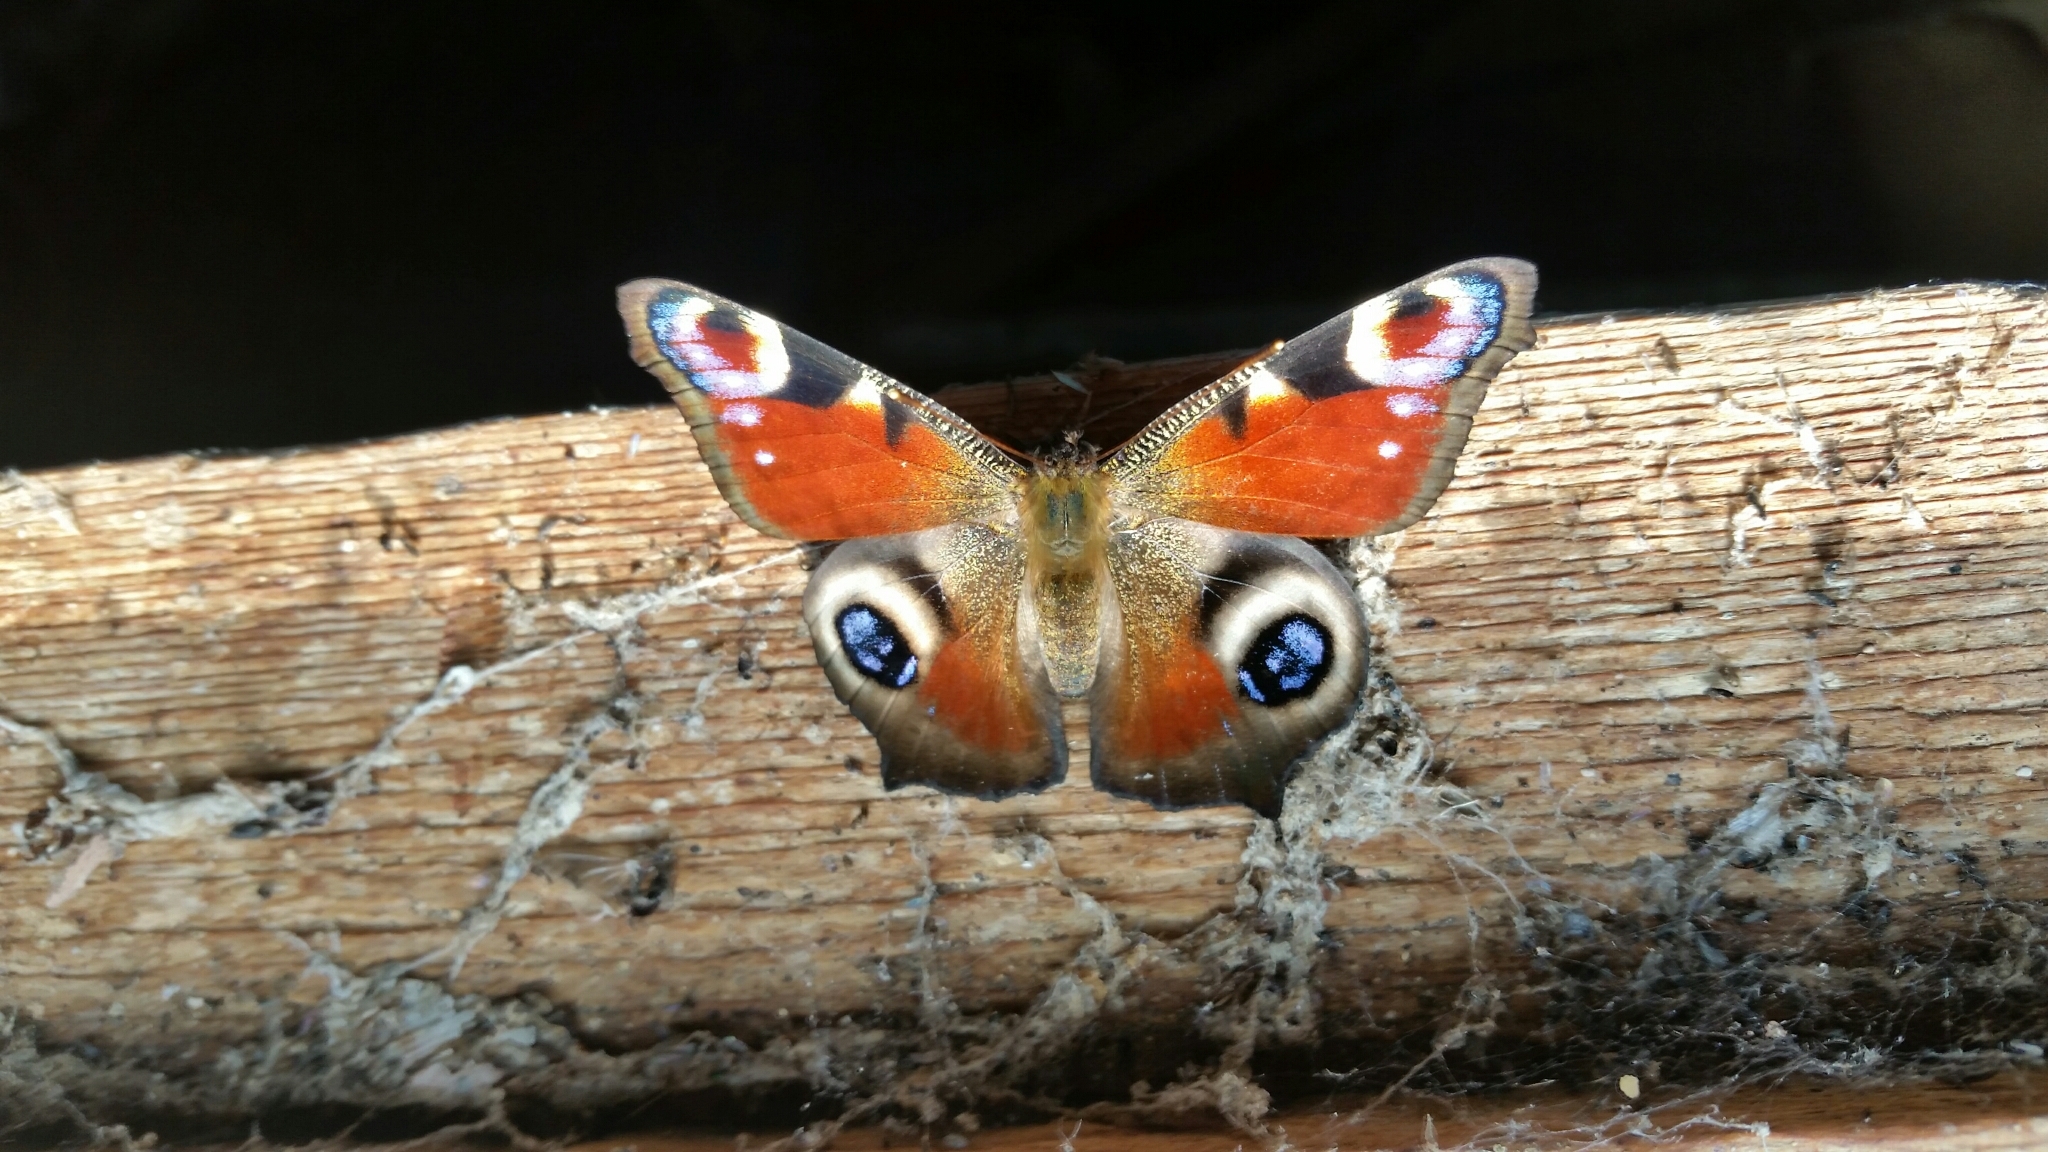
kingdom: Animalia
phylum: Arthropoda
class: Insecta
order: Lepidoptera
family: Nymphalidae
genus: Aglais
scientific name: Aglais io
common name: Peacock
